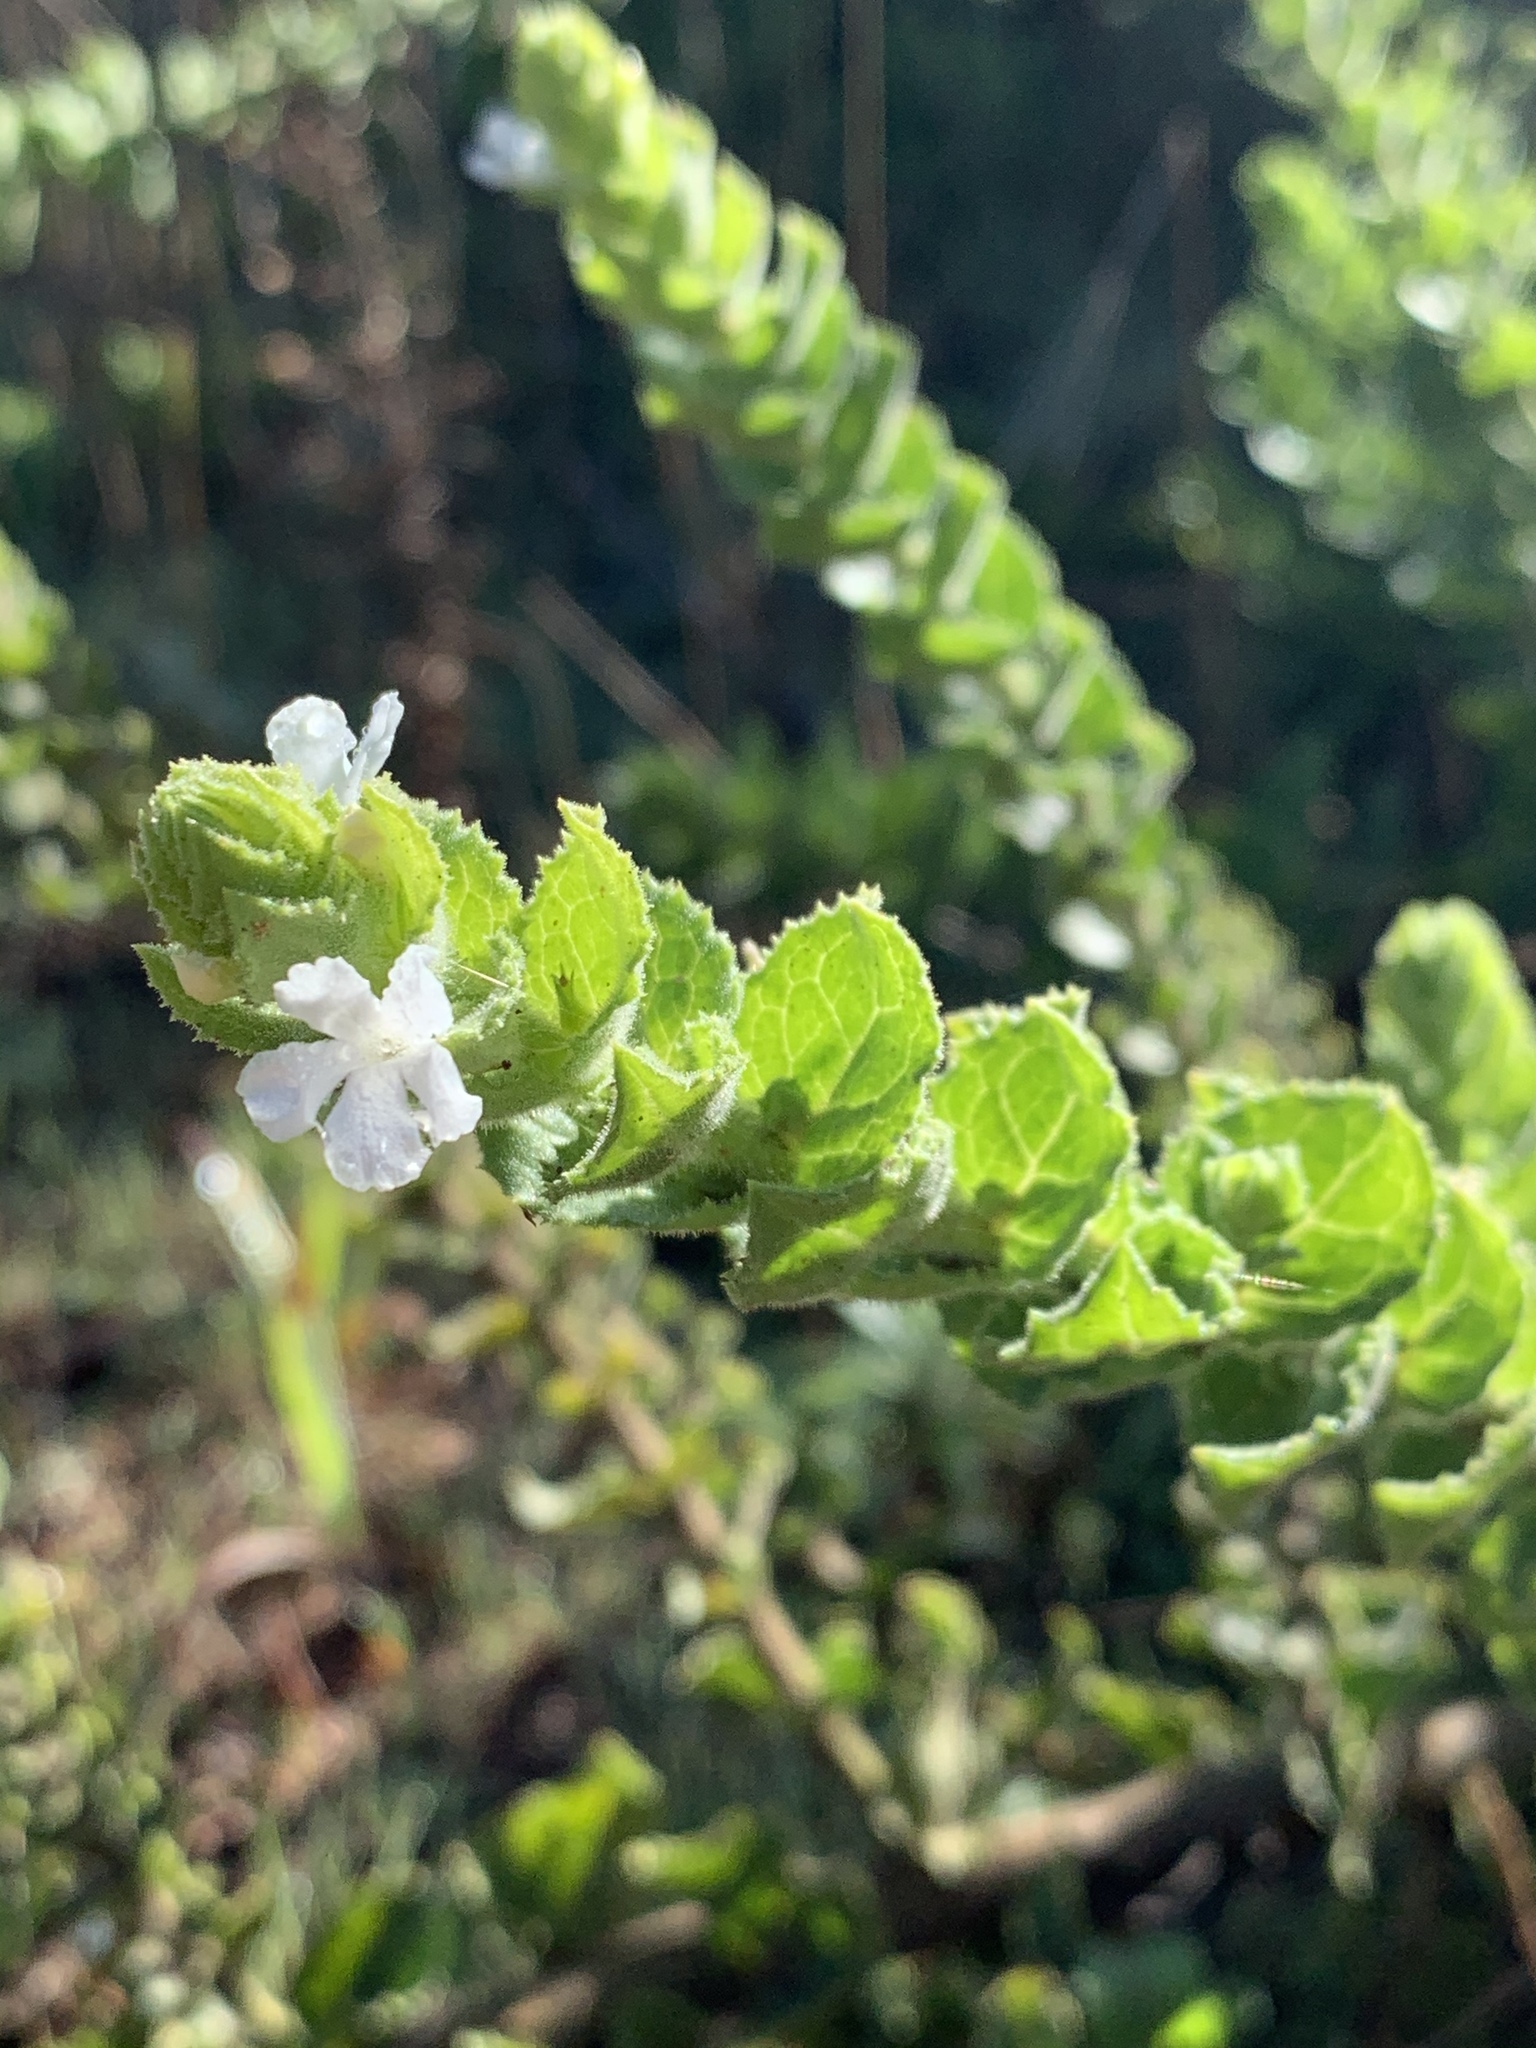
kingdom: Plantae
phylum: Tracheophyta
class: Magnoliopsida
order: Lamiales
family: Scrophulariaceae
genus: Oftia
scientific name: Oftia africana
